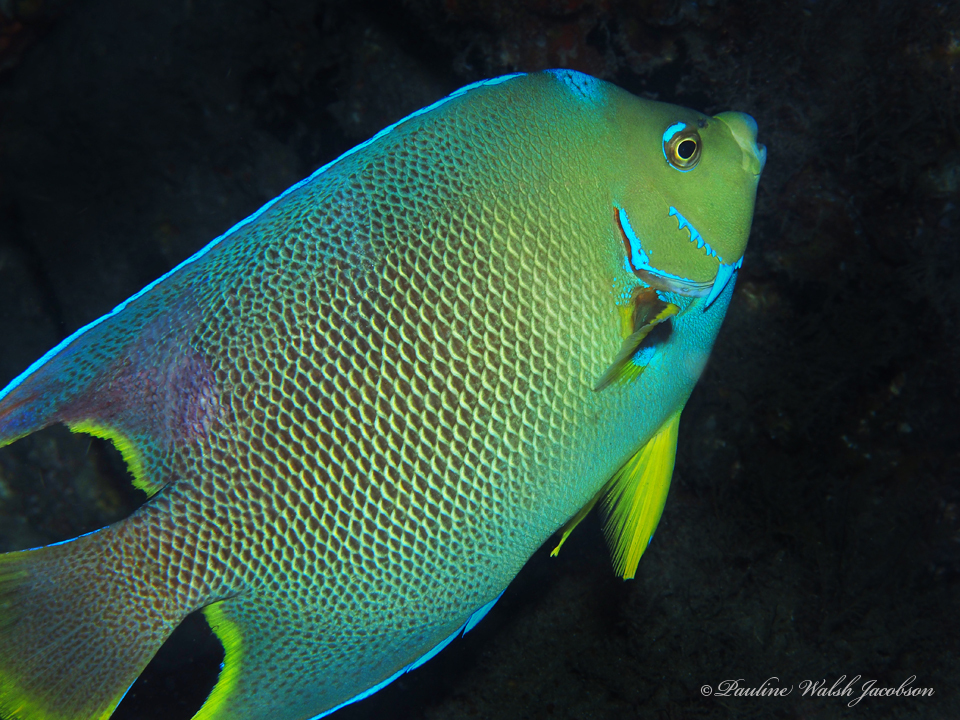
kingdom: Animalia
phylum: Chordata
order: Perciformes
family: Pomacanthidae
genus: Holacanthus
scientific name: Holacanthus ciliaris
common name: Queen angelfish
